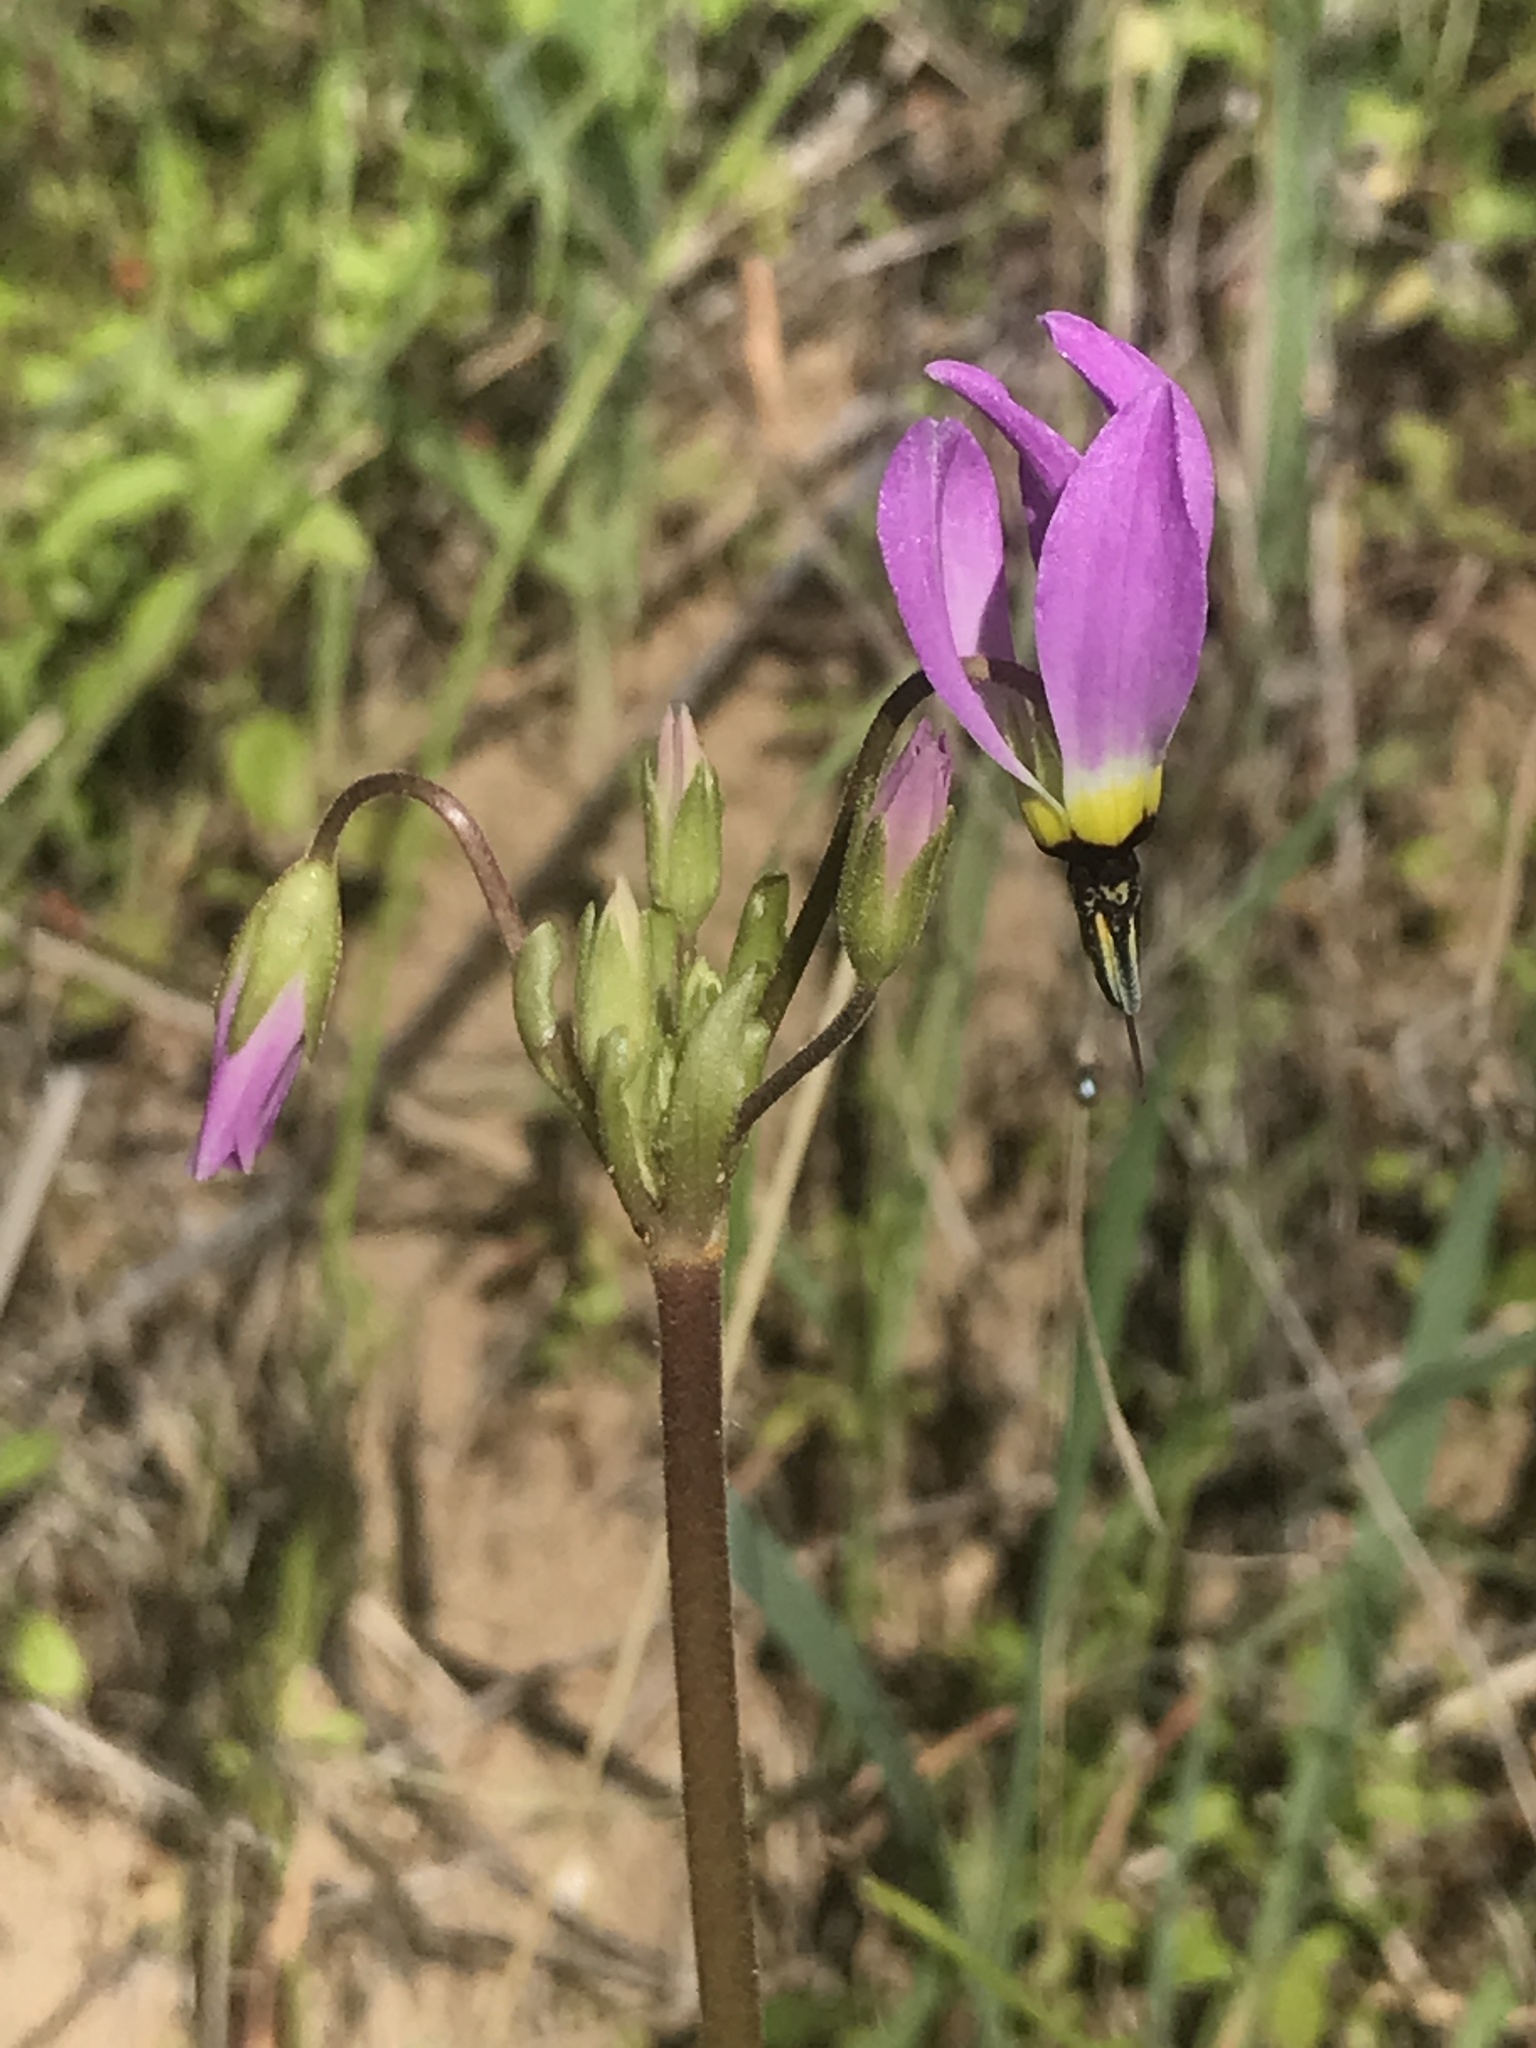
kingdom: Plantae
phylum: Tracheophyta
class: Magnoliopsida
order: Ericales
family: Primulaceae
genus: Dodecatheon
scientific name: Dodecatheon clevelandii
